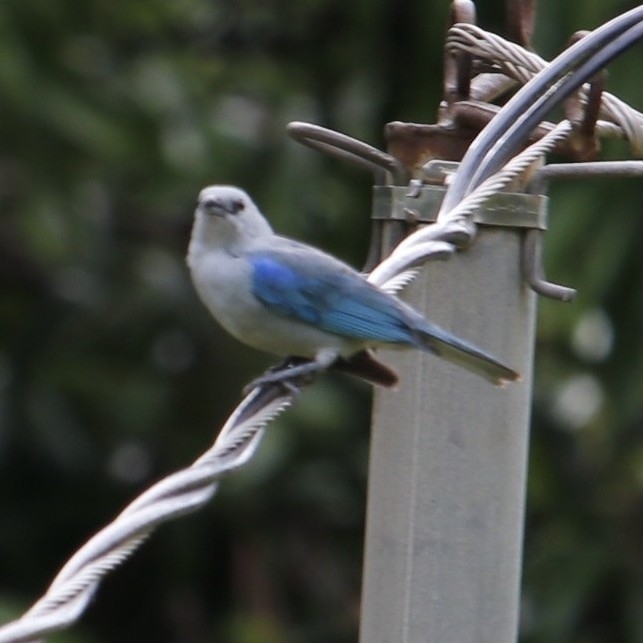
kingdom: Animalia
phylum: Chordata
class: Aves
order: Passeriformes
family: Thraupidae
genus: Thraupis
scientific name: Thraupis episcopus
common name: Blue-grey tanager
